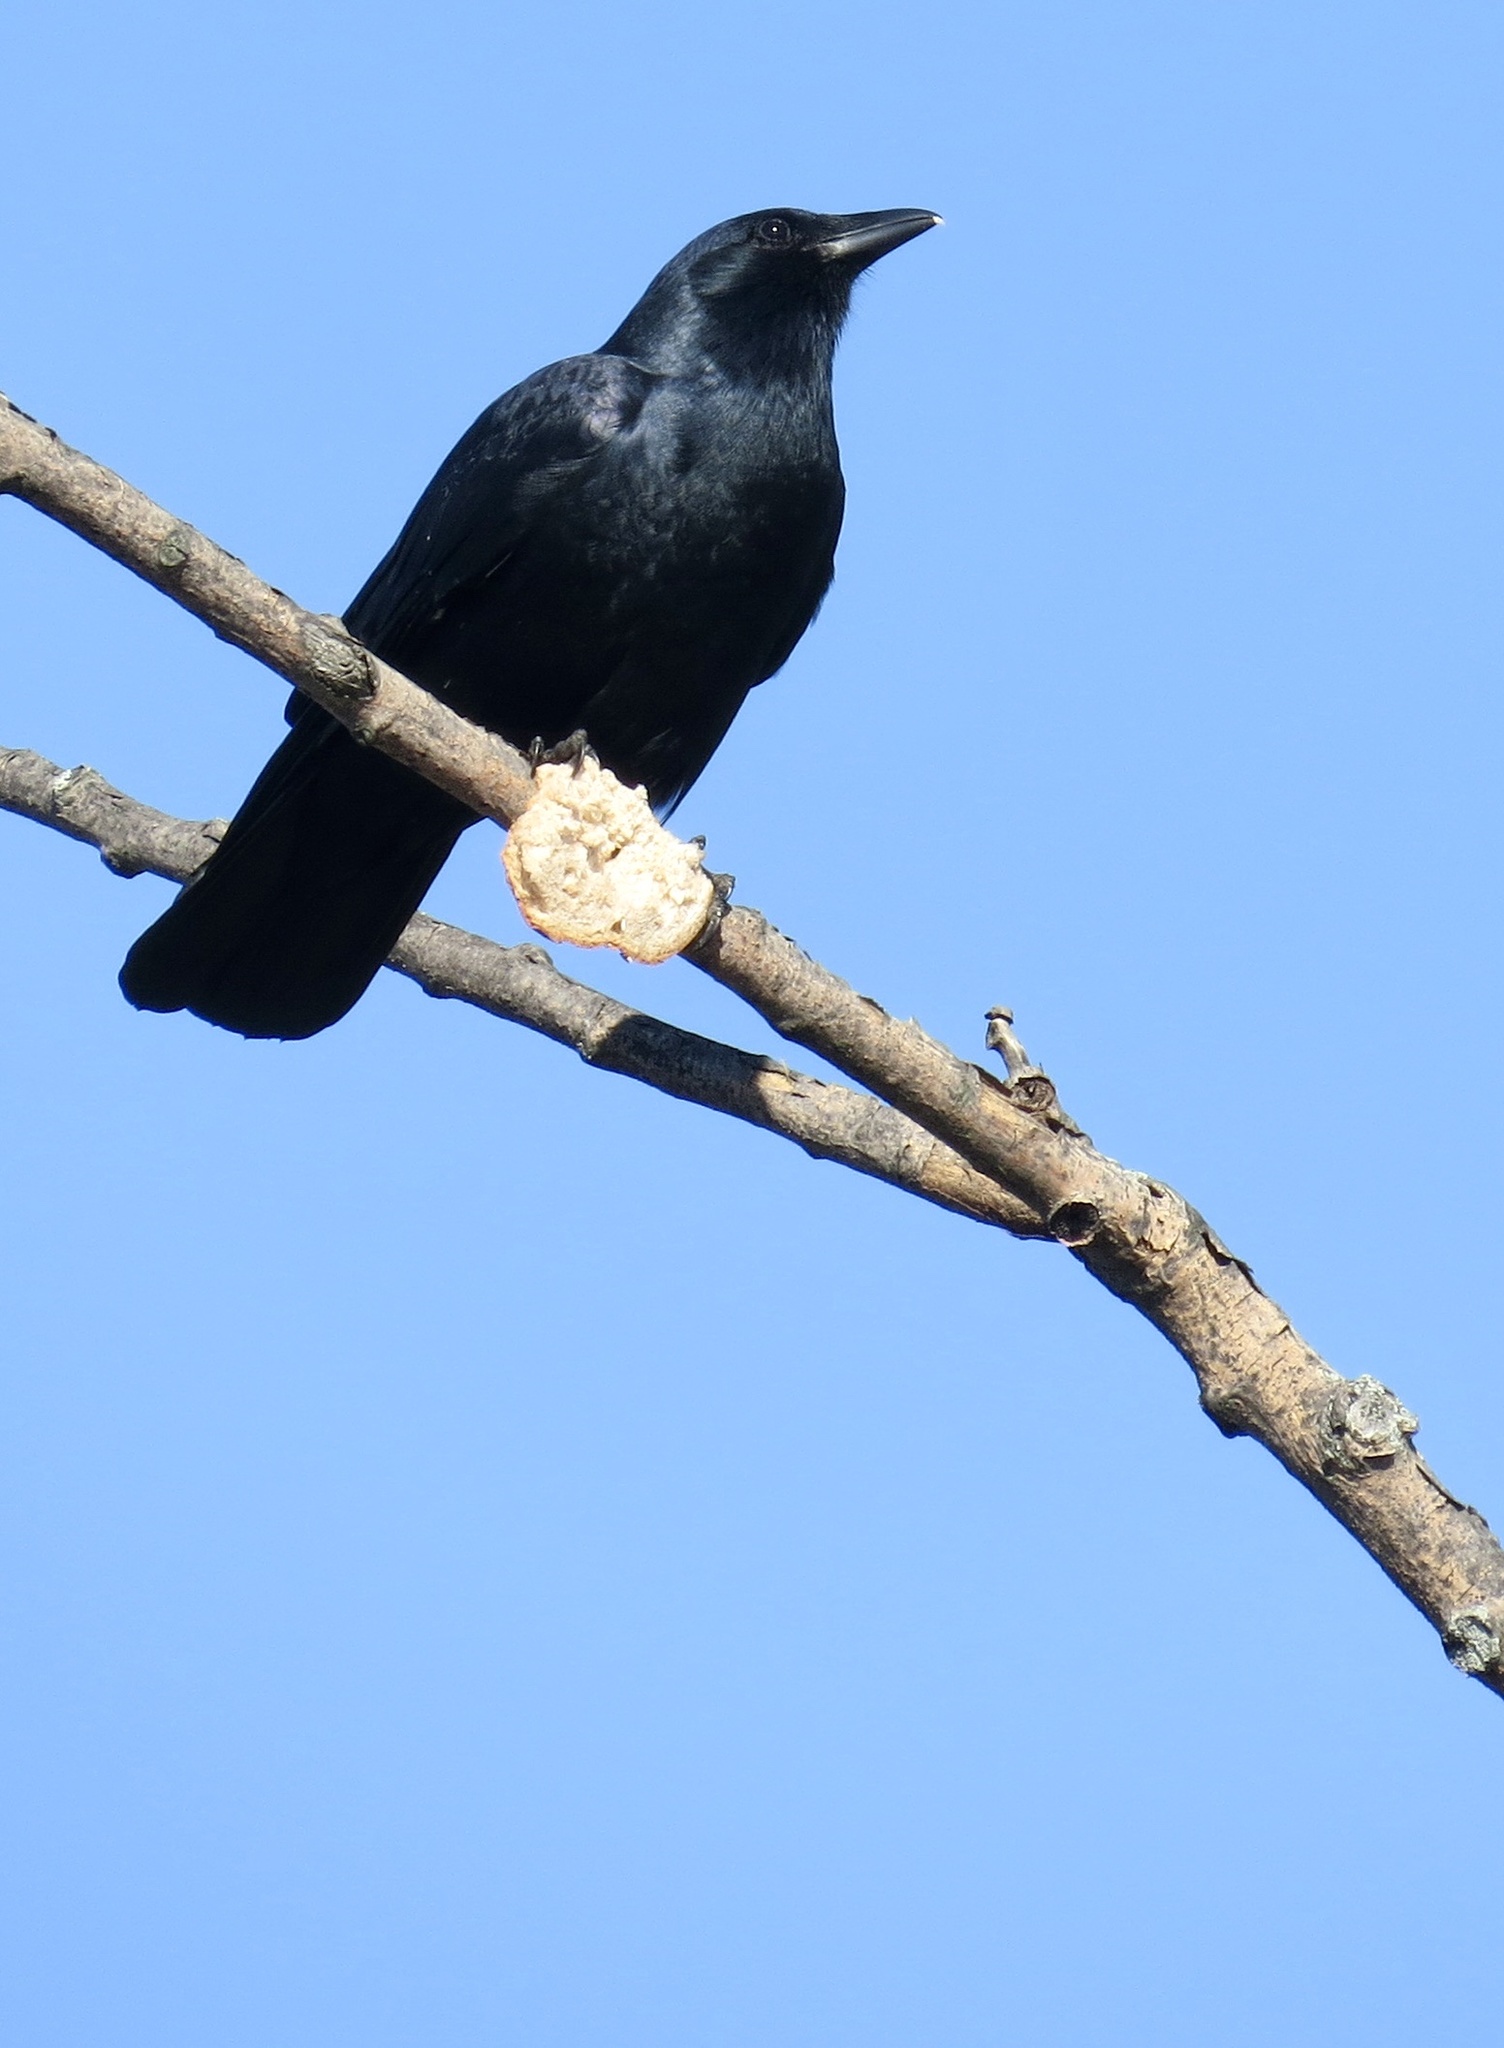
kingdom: Animalia
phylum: Chordata
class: Aves
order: Passeriformes
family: Corvidae
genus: Corvus
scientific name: Corvus
